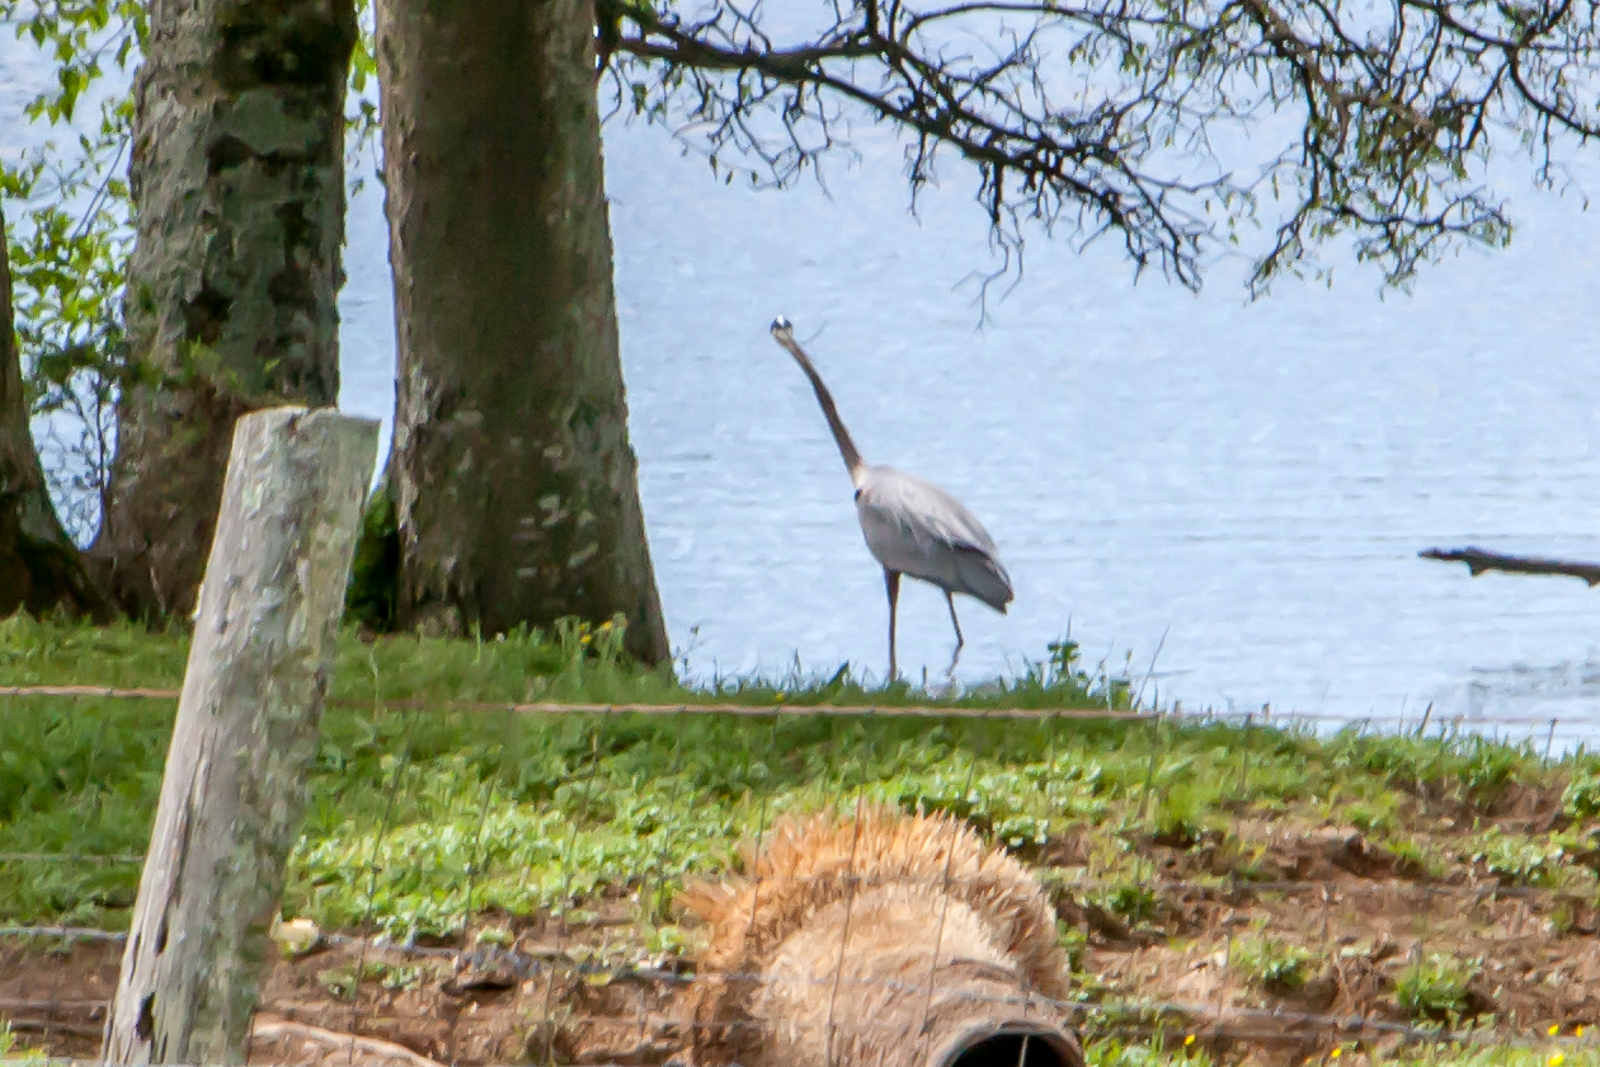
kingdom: Animalia
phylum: Chordata
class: Aves
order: Pelecaniformes
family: Ardeidae
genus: Ardea
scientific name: Ardea herodias
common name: Great blue heron
